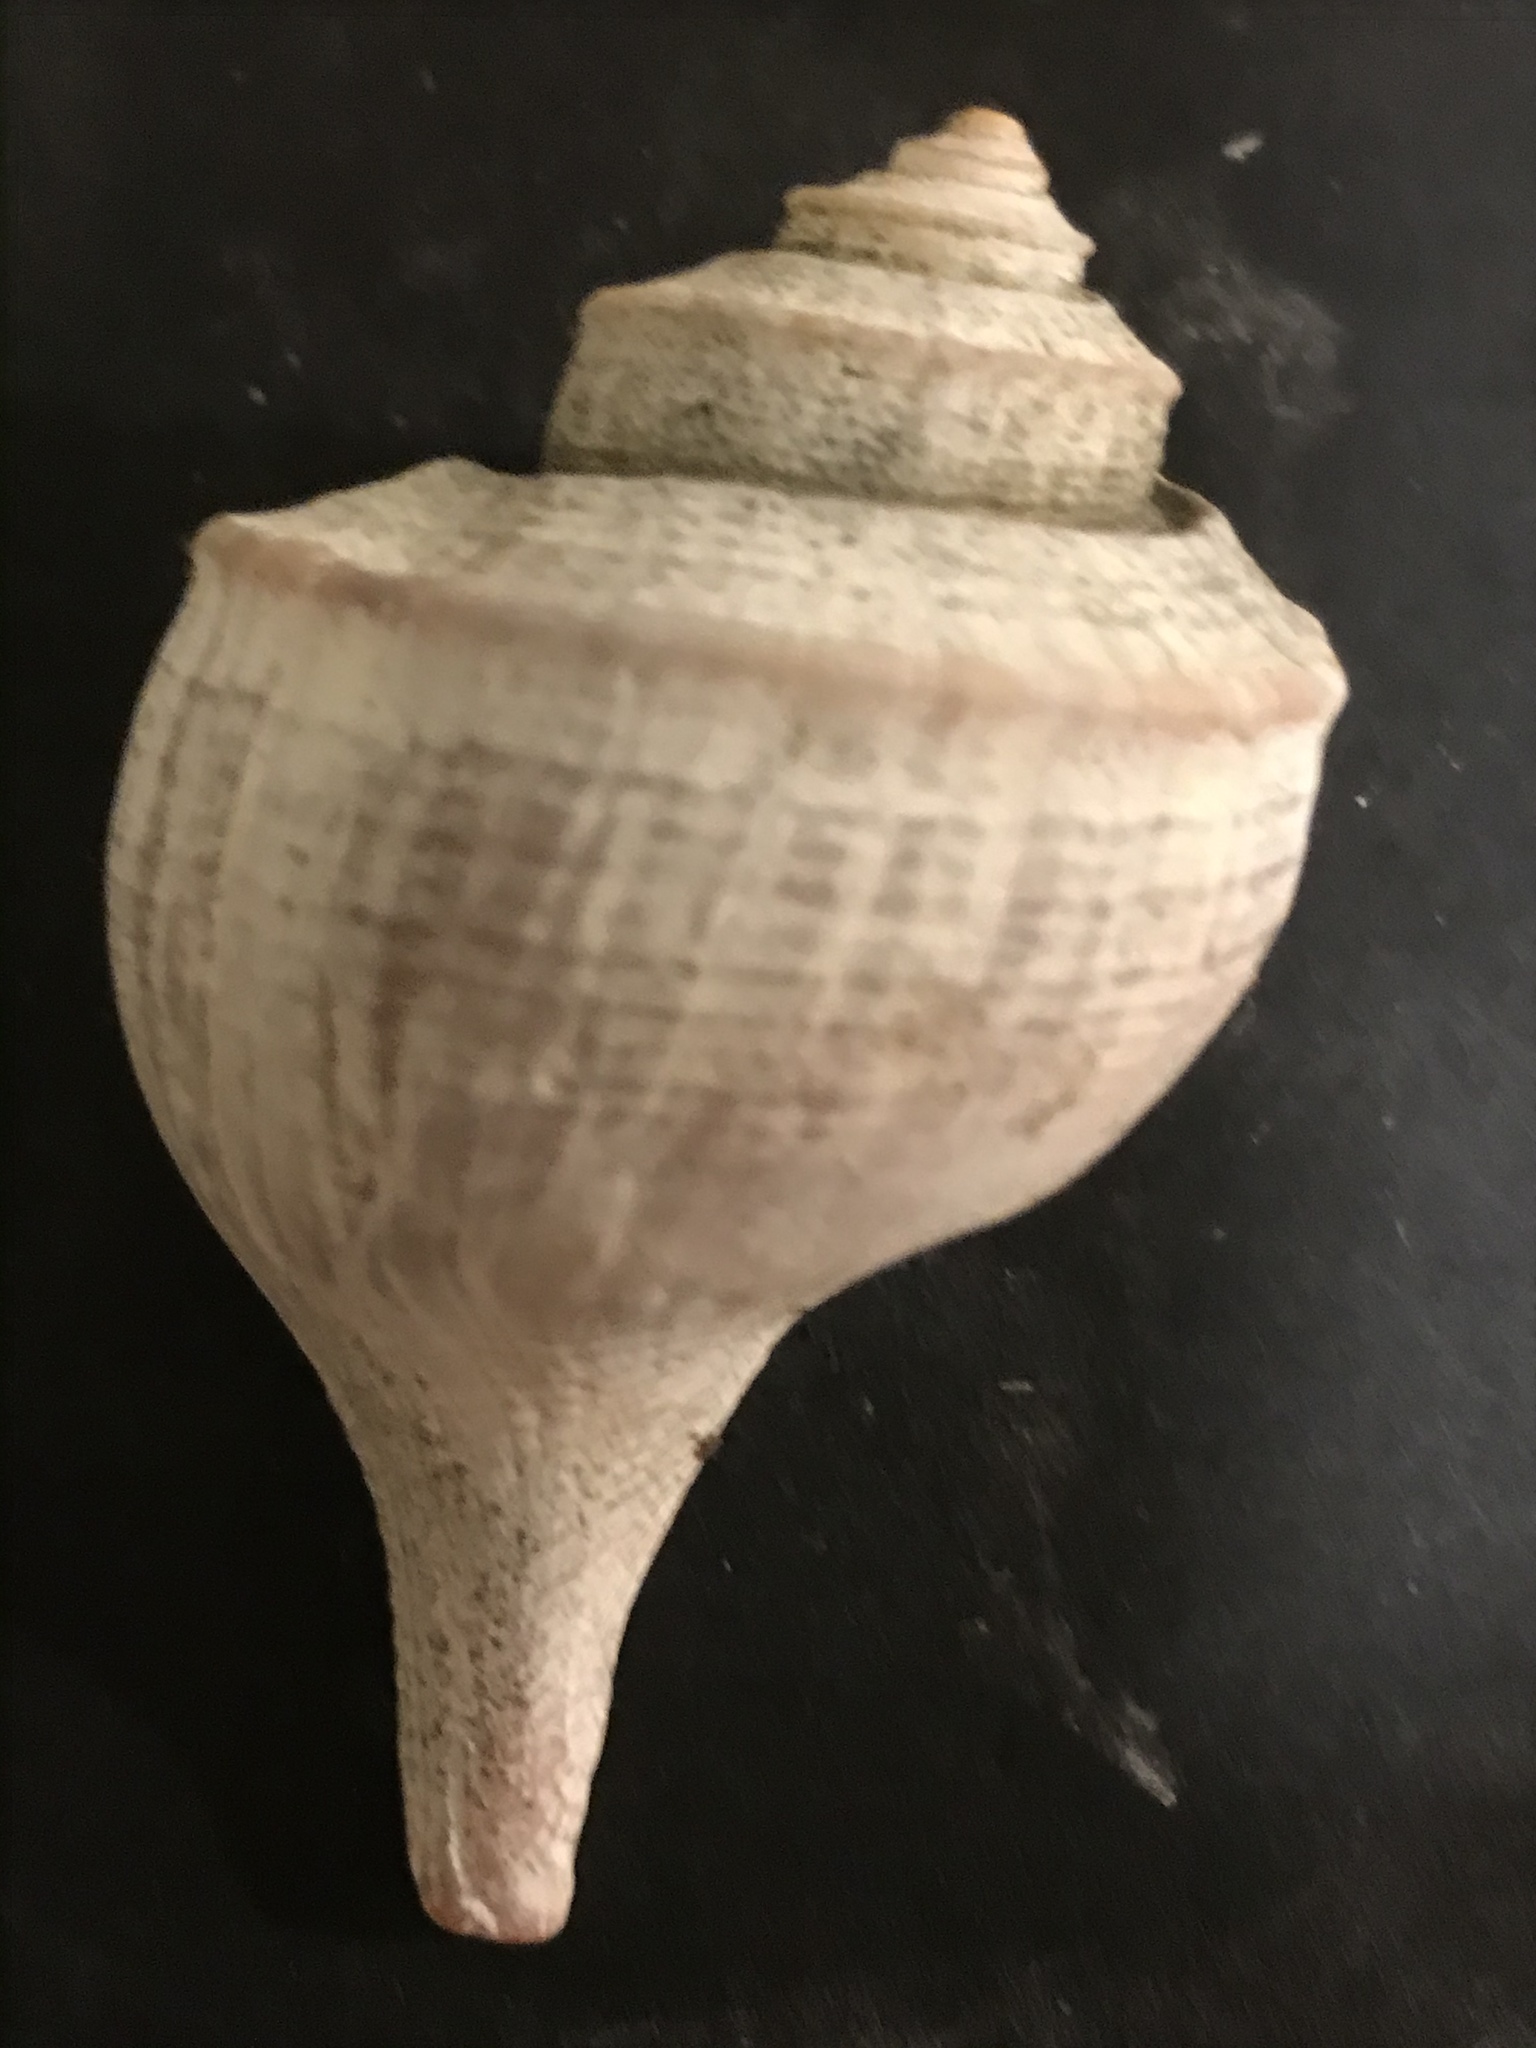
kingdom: Animalia
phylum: Mollusca
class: Gastropoda
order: Neogastropoda
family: Busyconidae
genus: Busycotypus
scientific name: Busycotypus canaliculatus
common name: Channeled whelk
